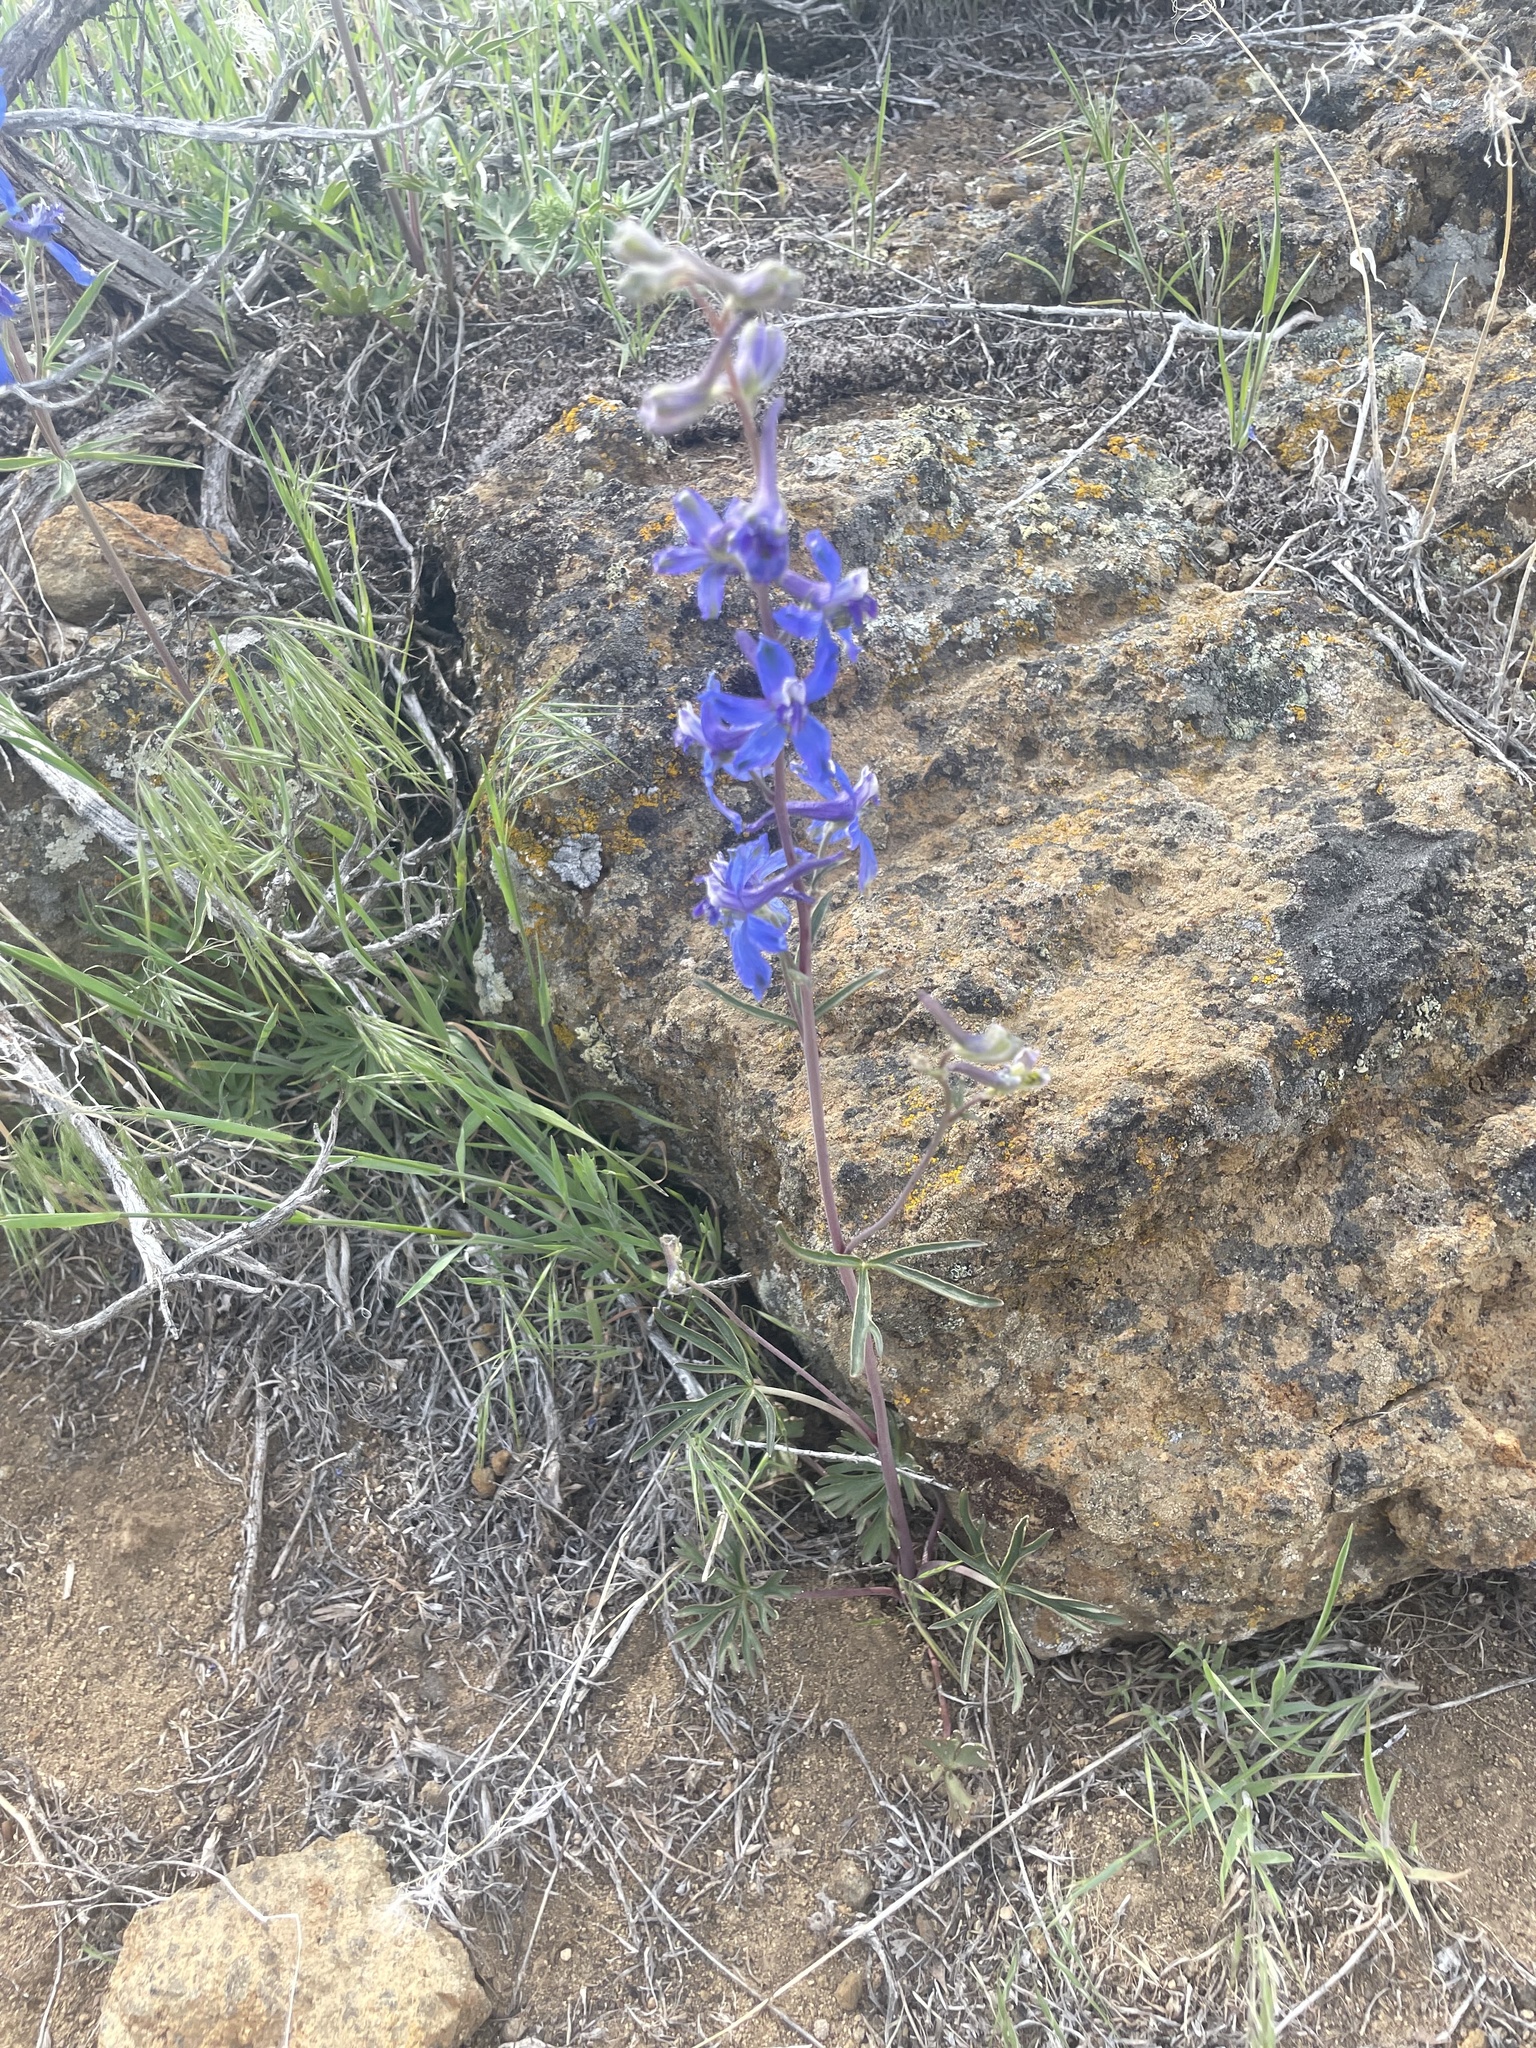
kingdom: Plantae
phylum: Tracheophyta
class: Magnoliopsida
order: Ranunculales
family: Ranunculaceae
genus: Delphinium
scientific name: Delphinium andersonii
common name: Anderson's larkspur
